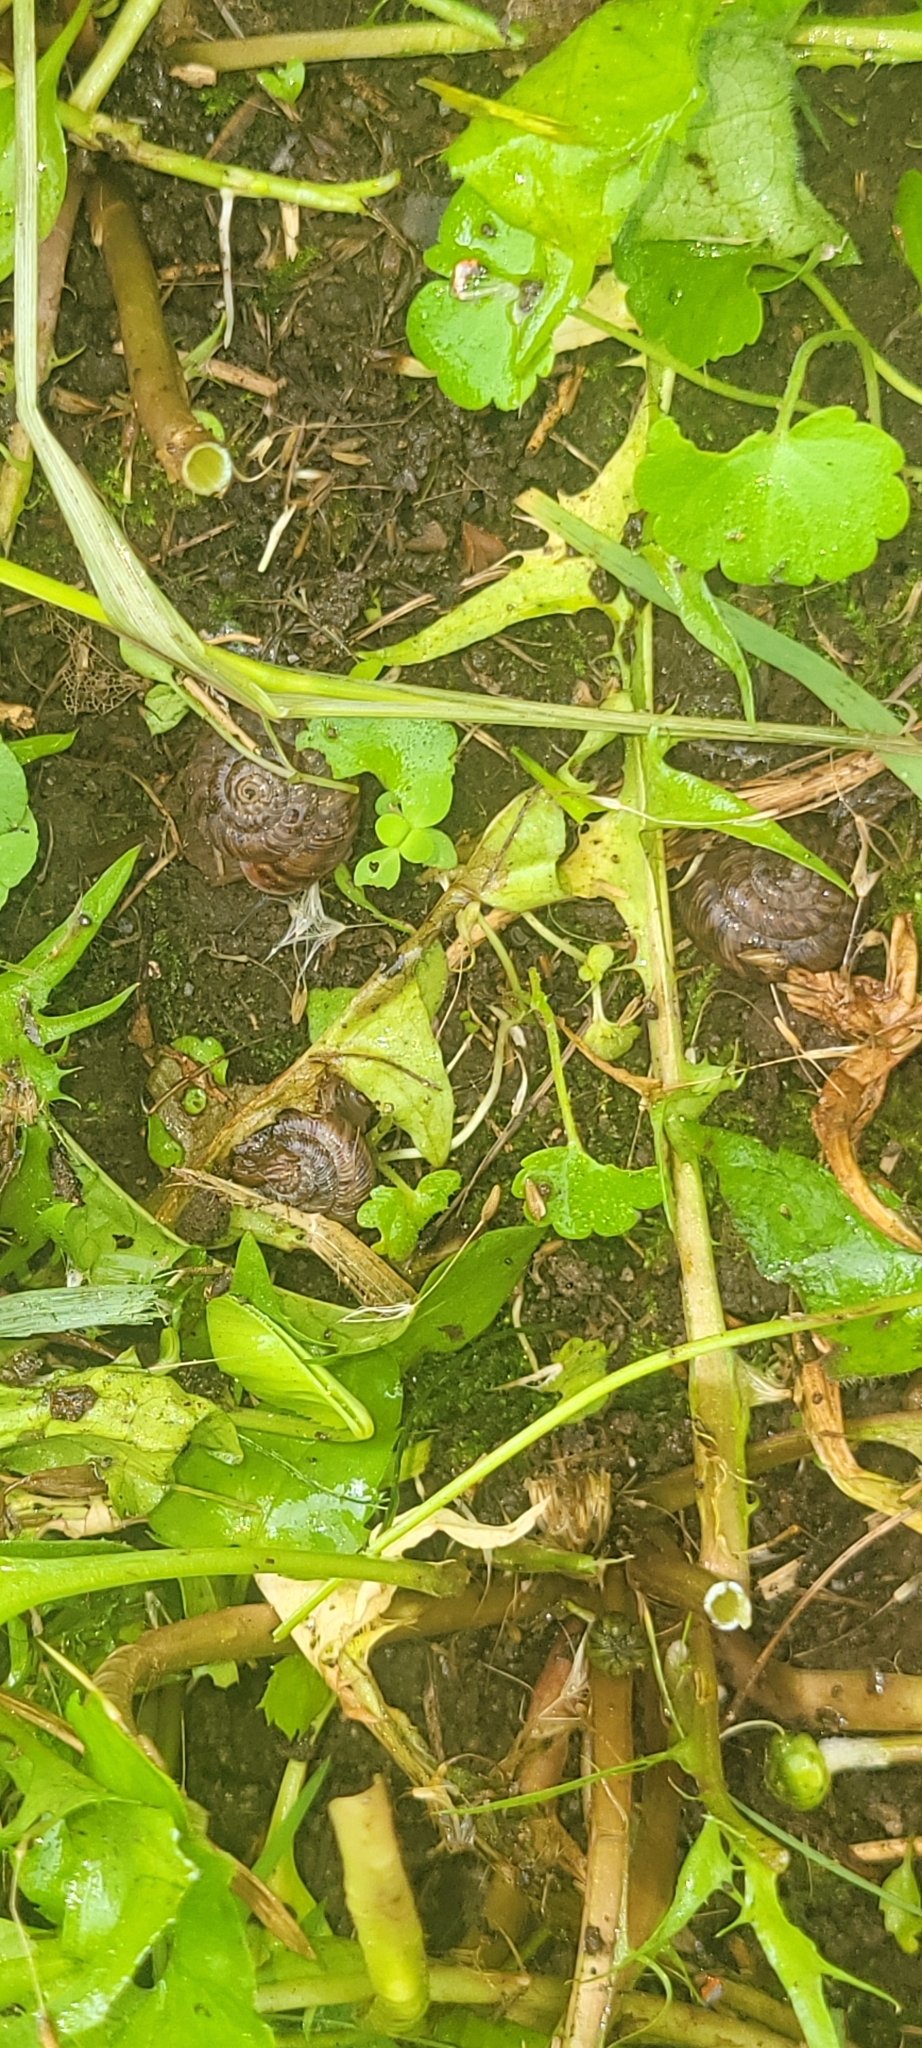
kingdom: Animalia
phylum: Mollusca
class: Gastropoda
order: Stylommatophora
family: Discidae
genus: Anguispira
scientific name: Anguispira alternata
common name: Flamed tigersnail
